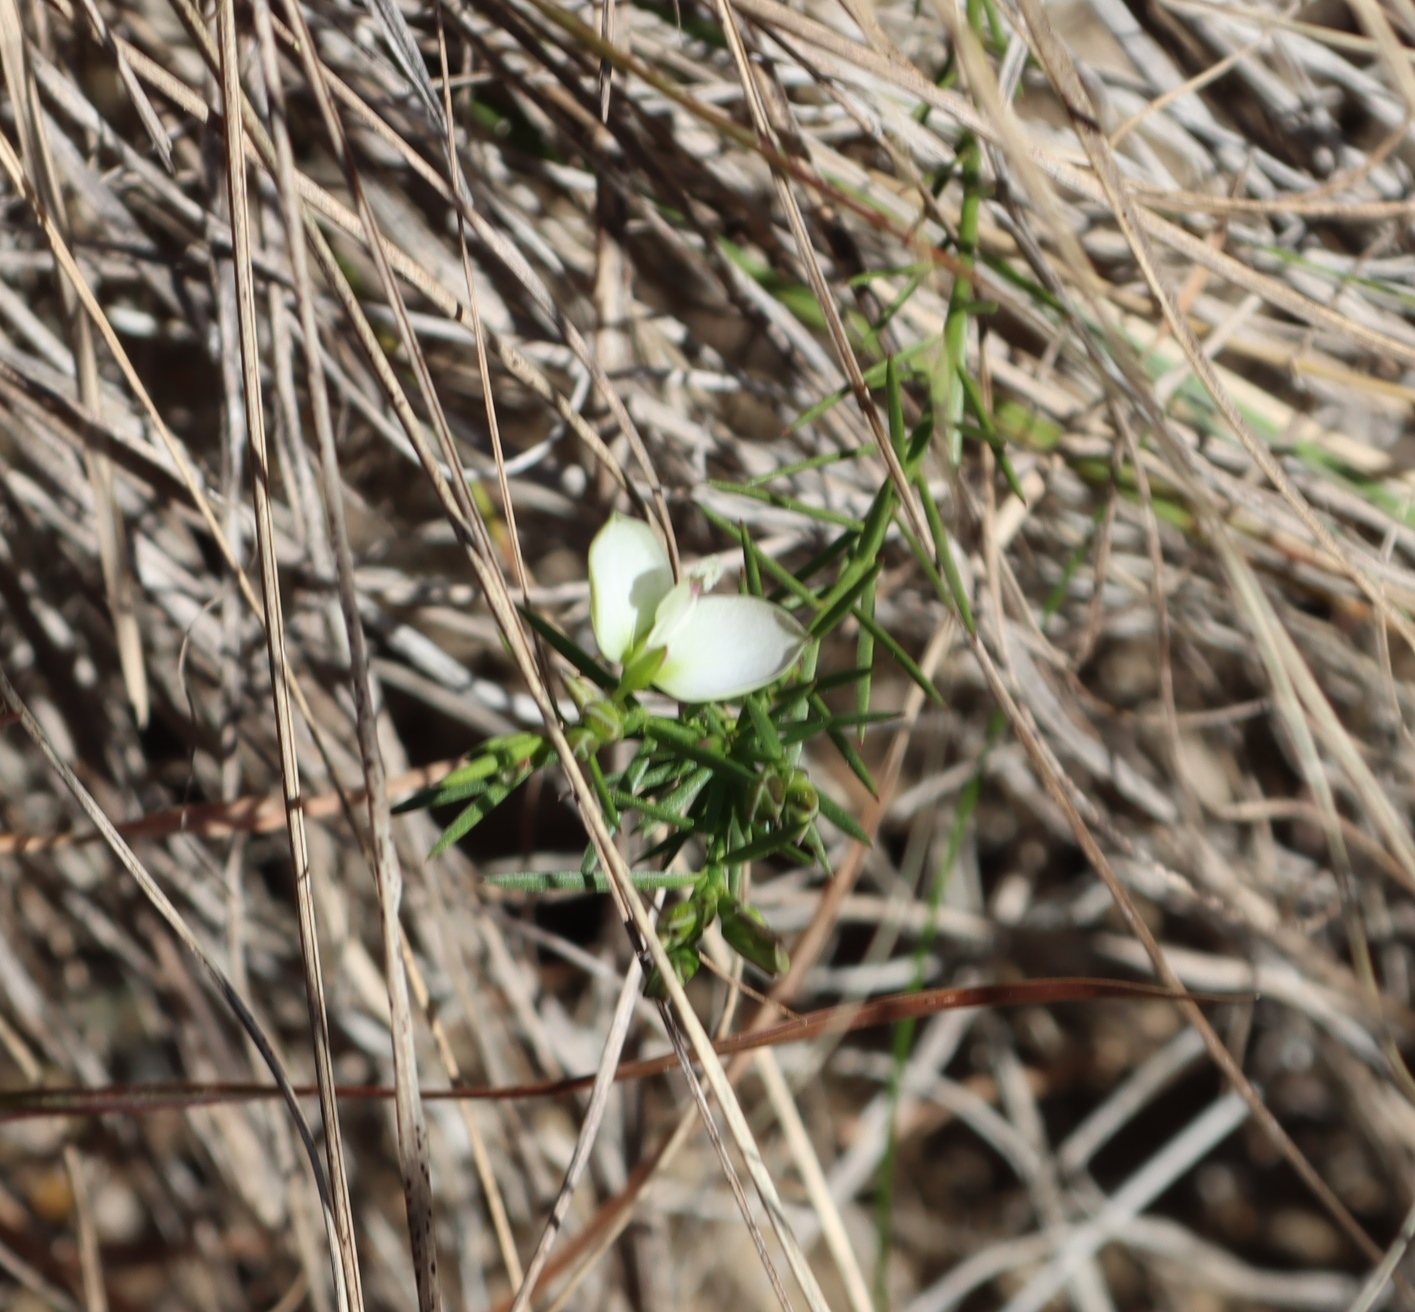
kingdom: Plantae
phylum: Tracheophyta
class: Magnoliopsida
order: Fabales
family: Polygalaceae
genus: Polygala
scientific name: Polygala levynsiana
